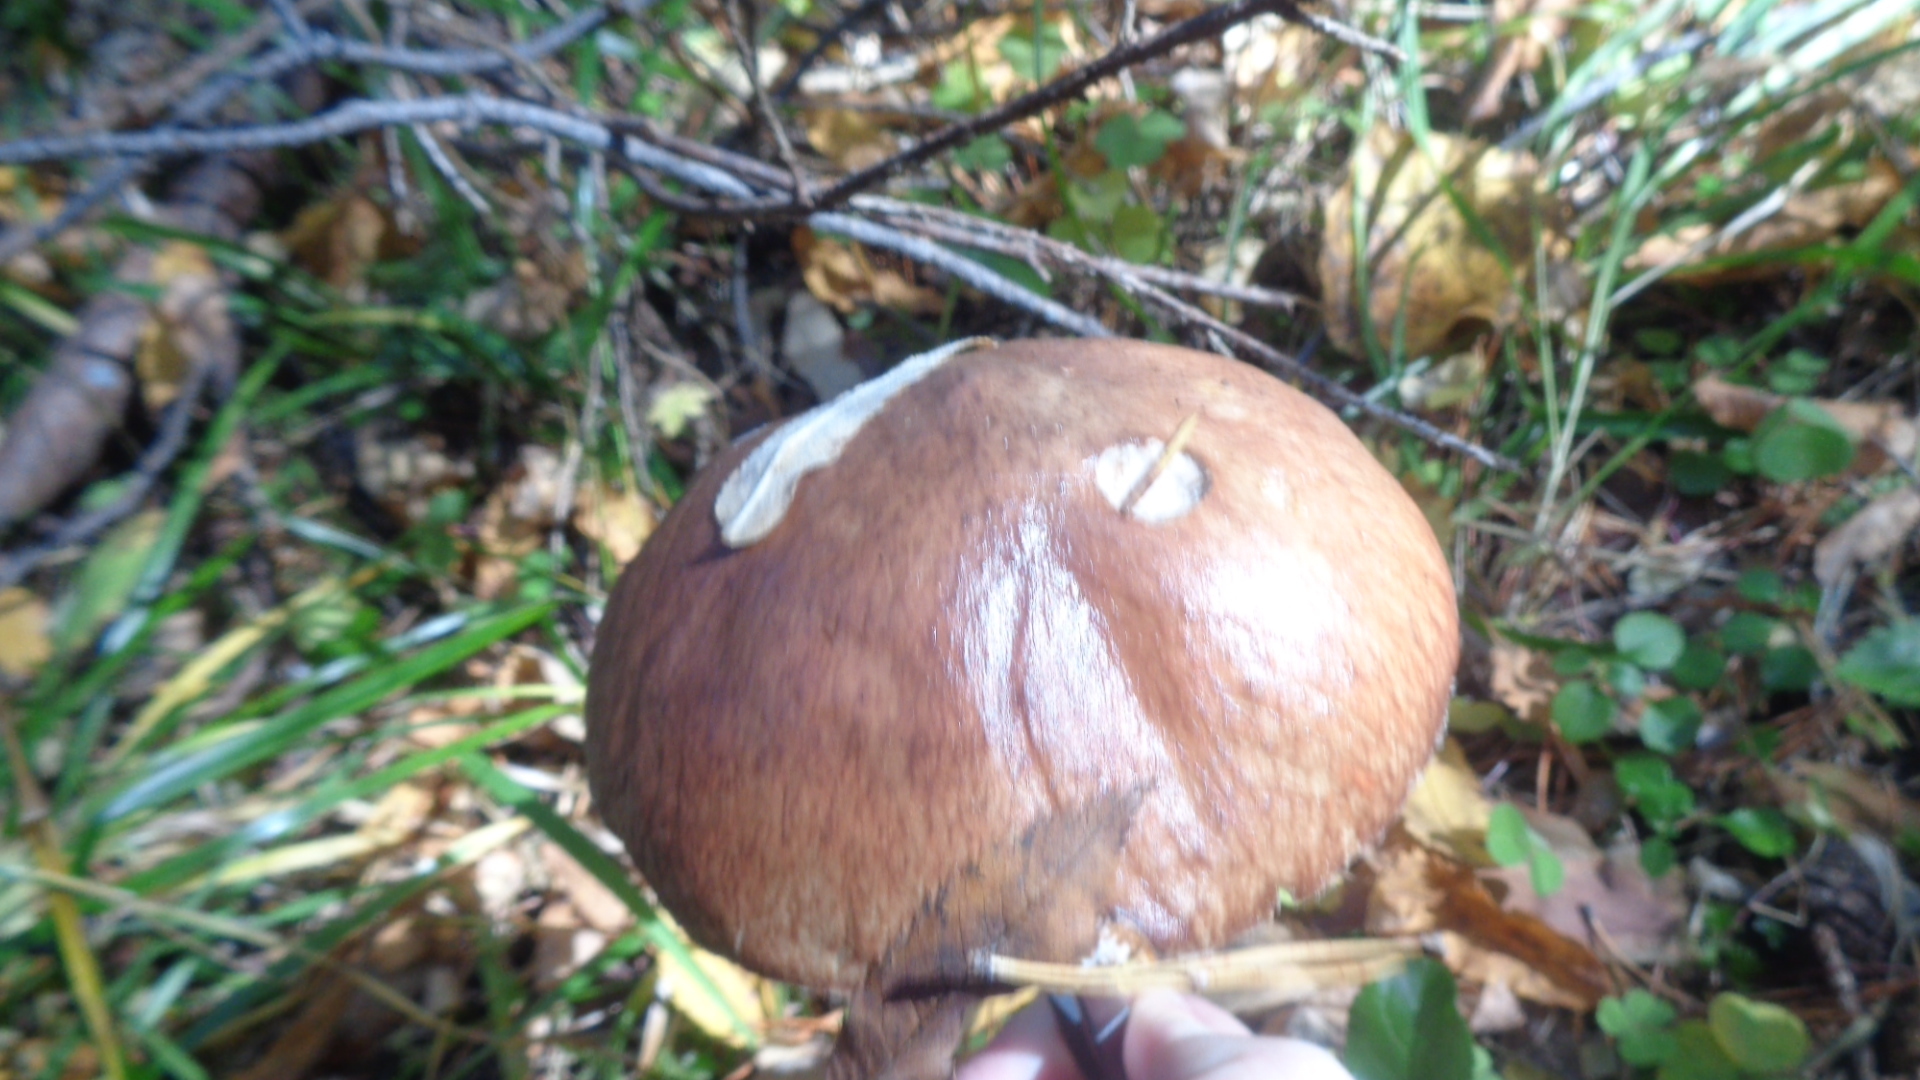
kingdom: Fungi
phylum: Basidiomycota
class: Agaricomycetes
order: Boletales
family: Suillaceae
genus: Suillus
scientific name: Suillus luteus
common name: Slippery jack
